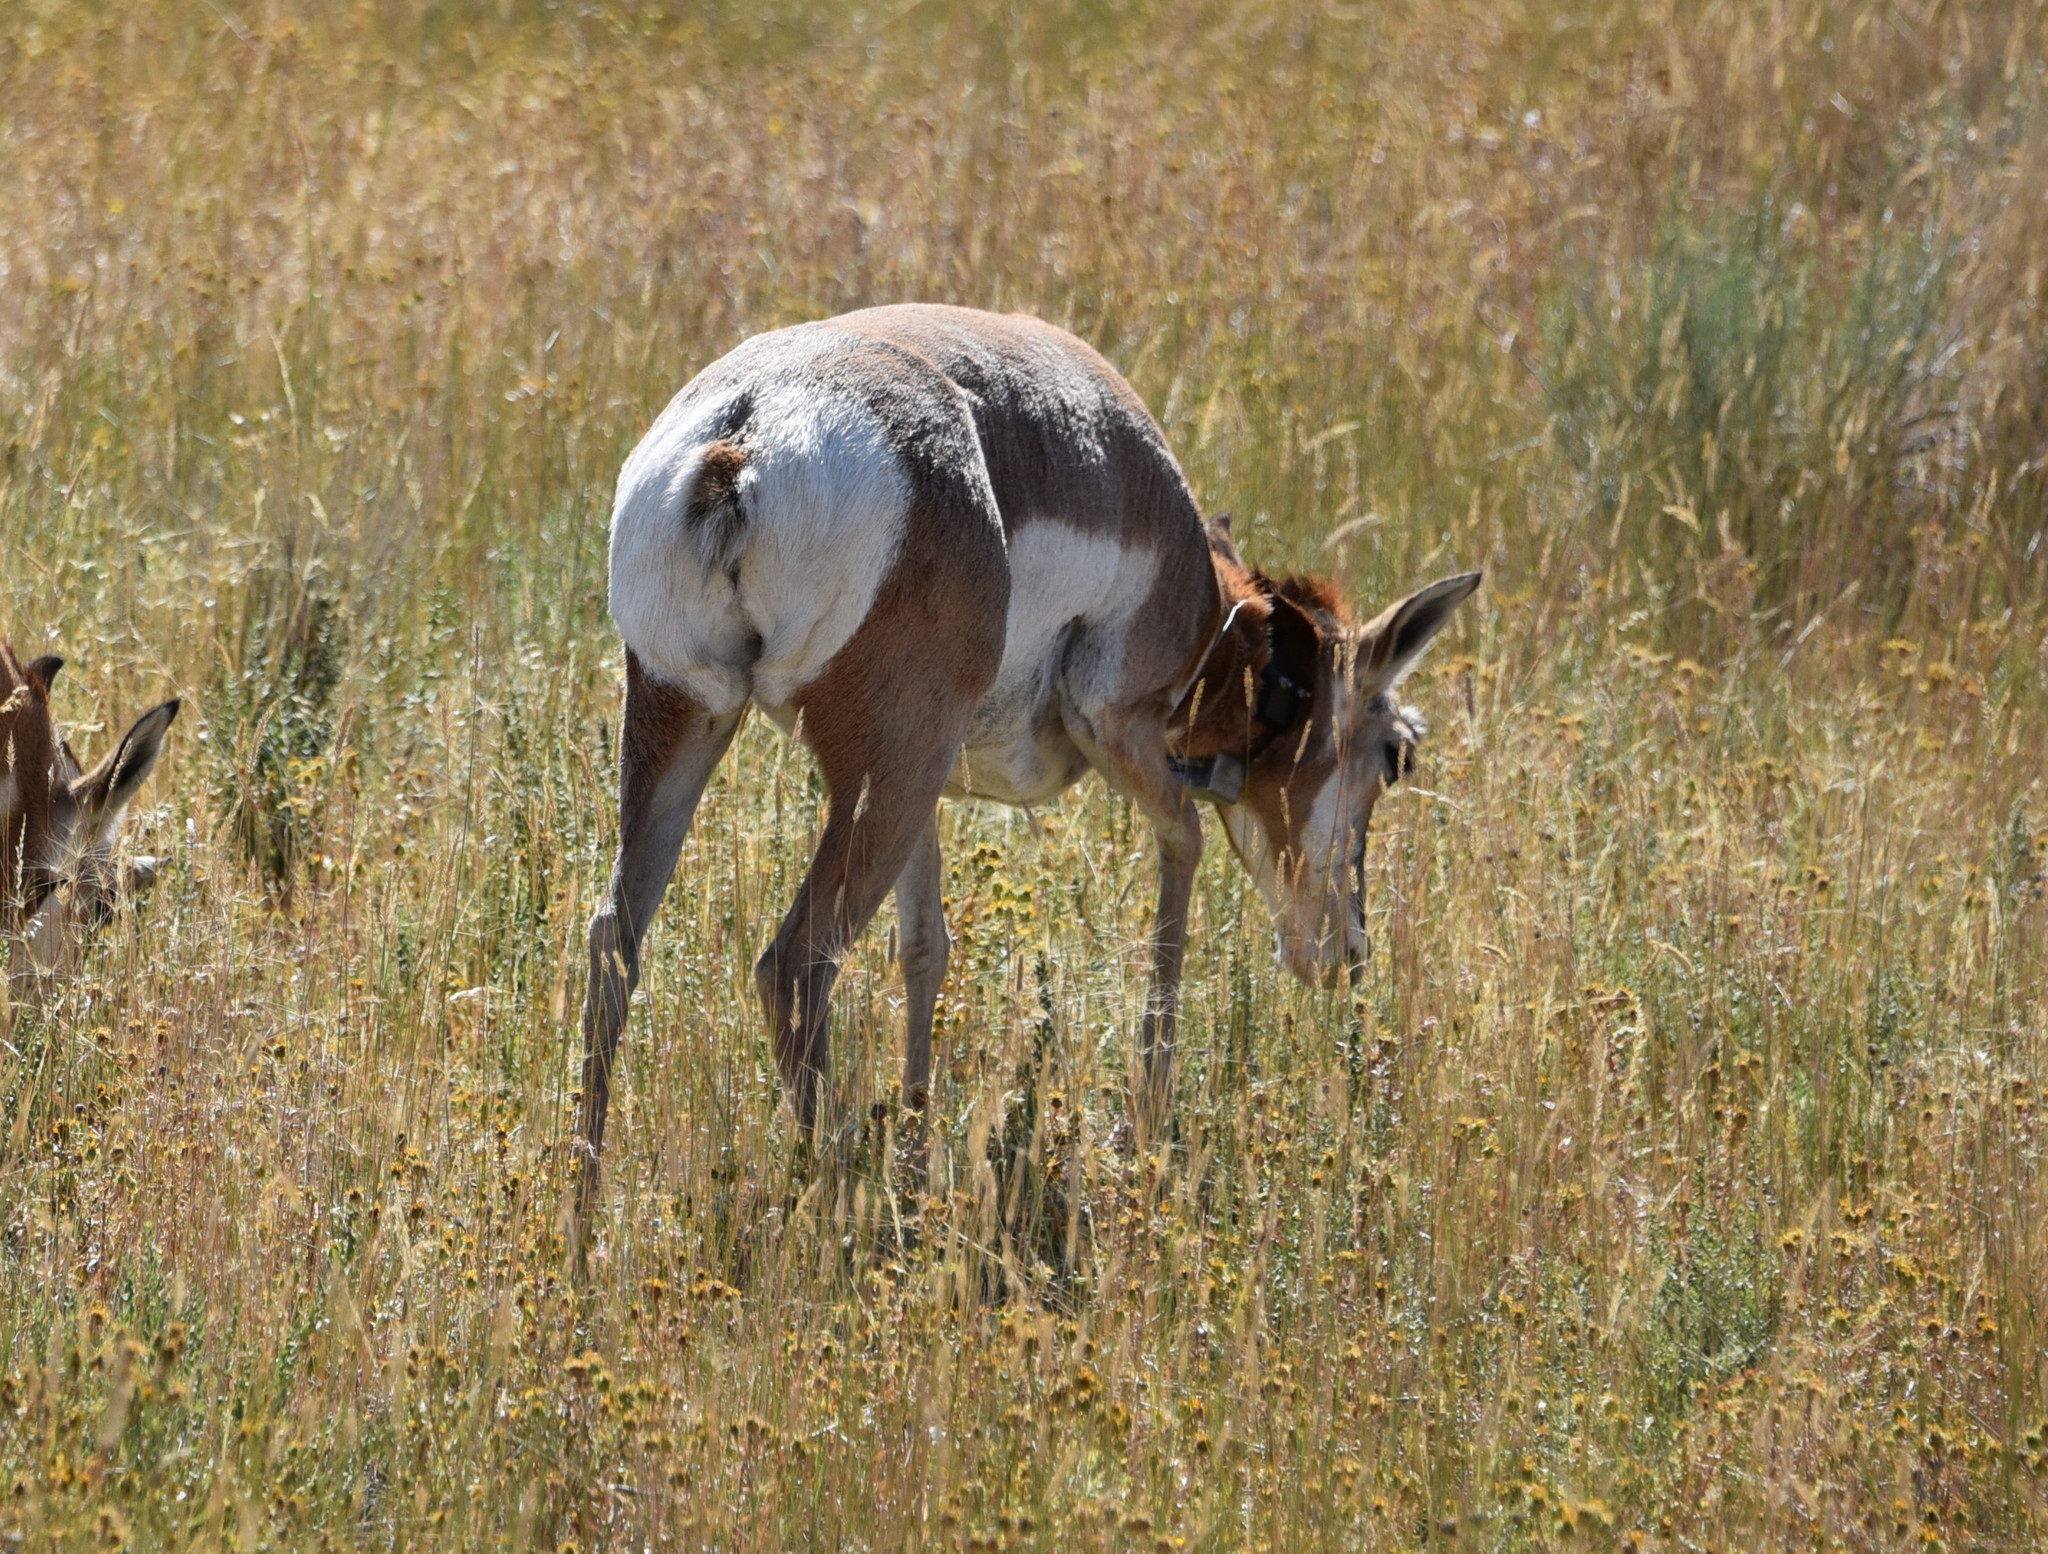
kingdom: Animalia
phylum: Chordata
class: Mammalia
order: Artiodactyla
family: Antilocapridae
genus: Antilocapra
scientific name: Antilocapra americana
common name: Pronghorn
